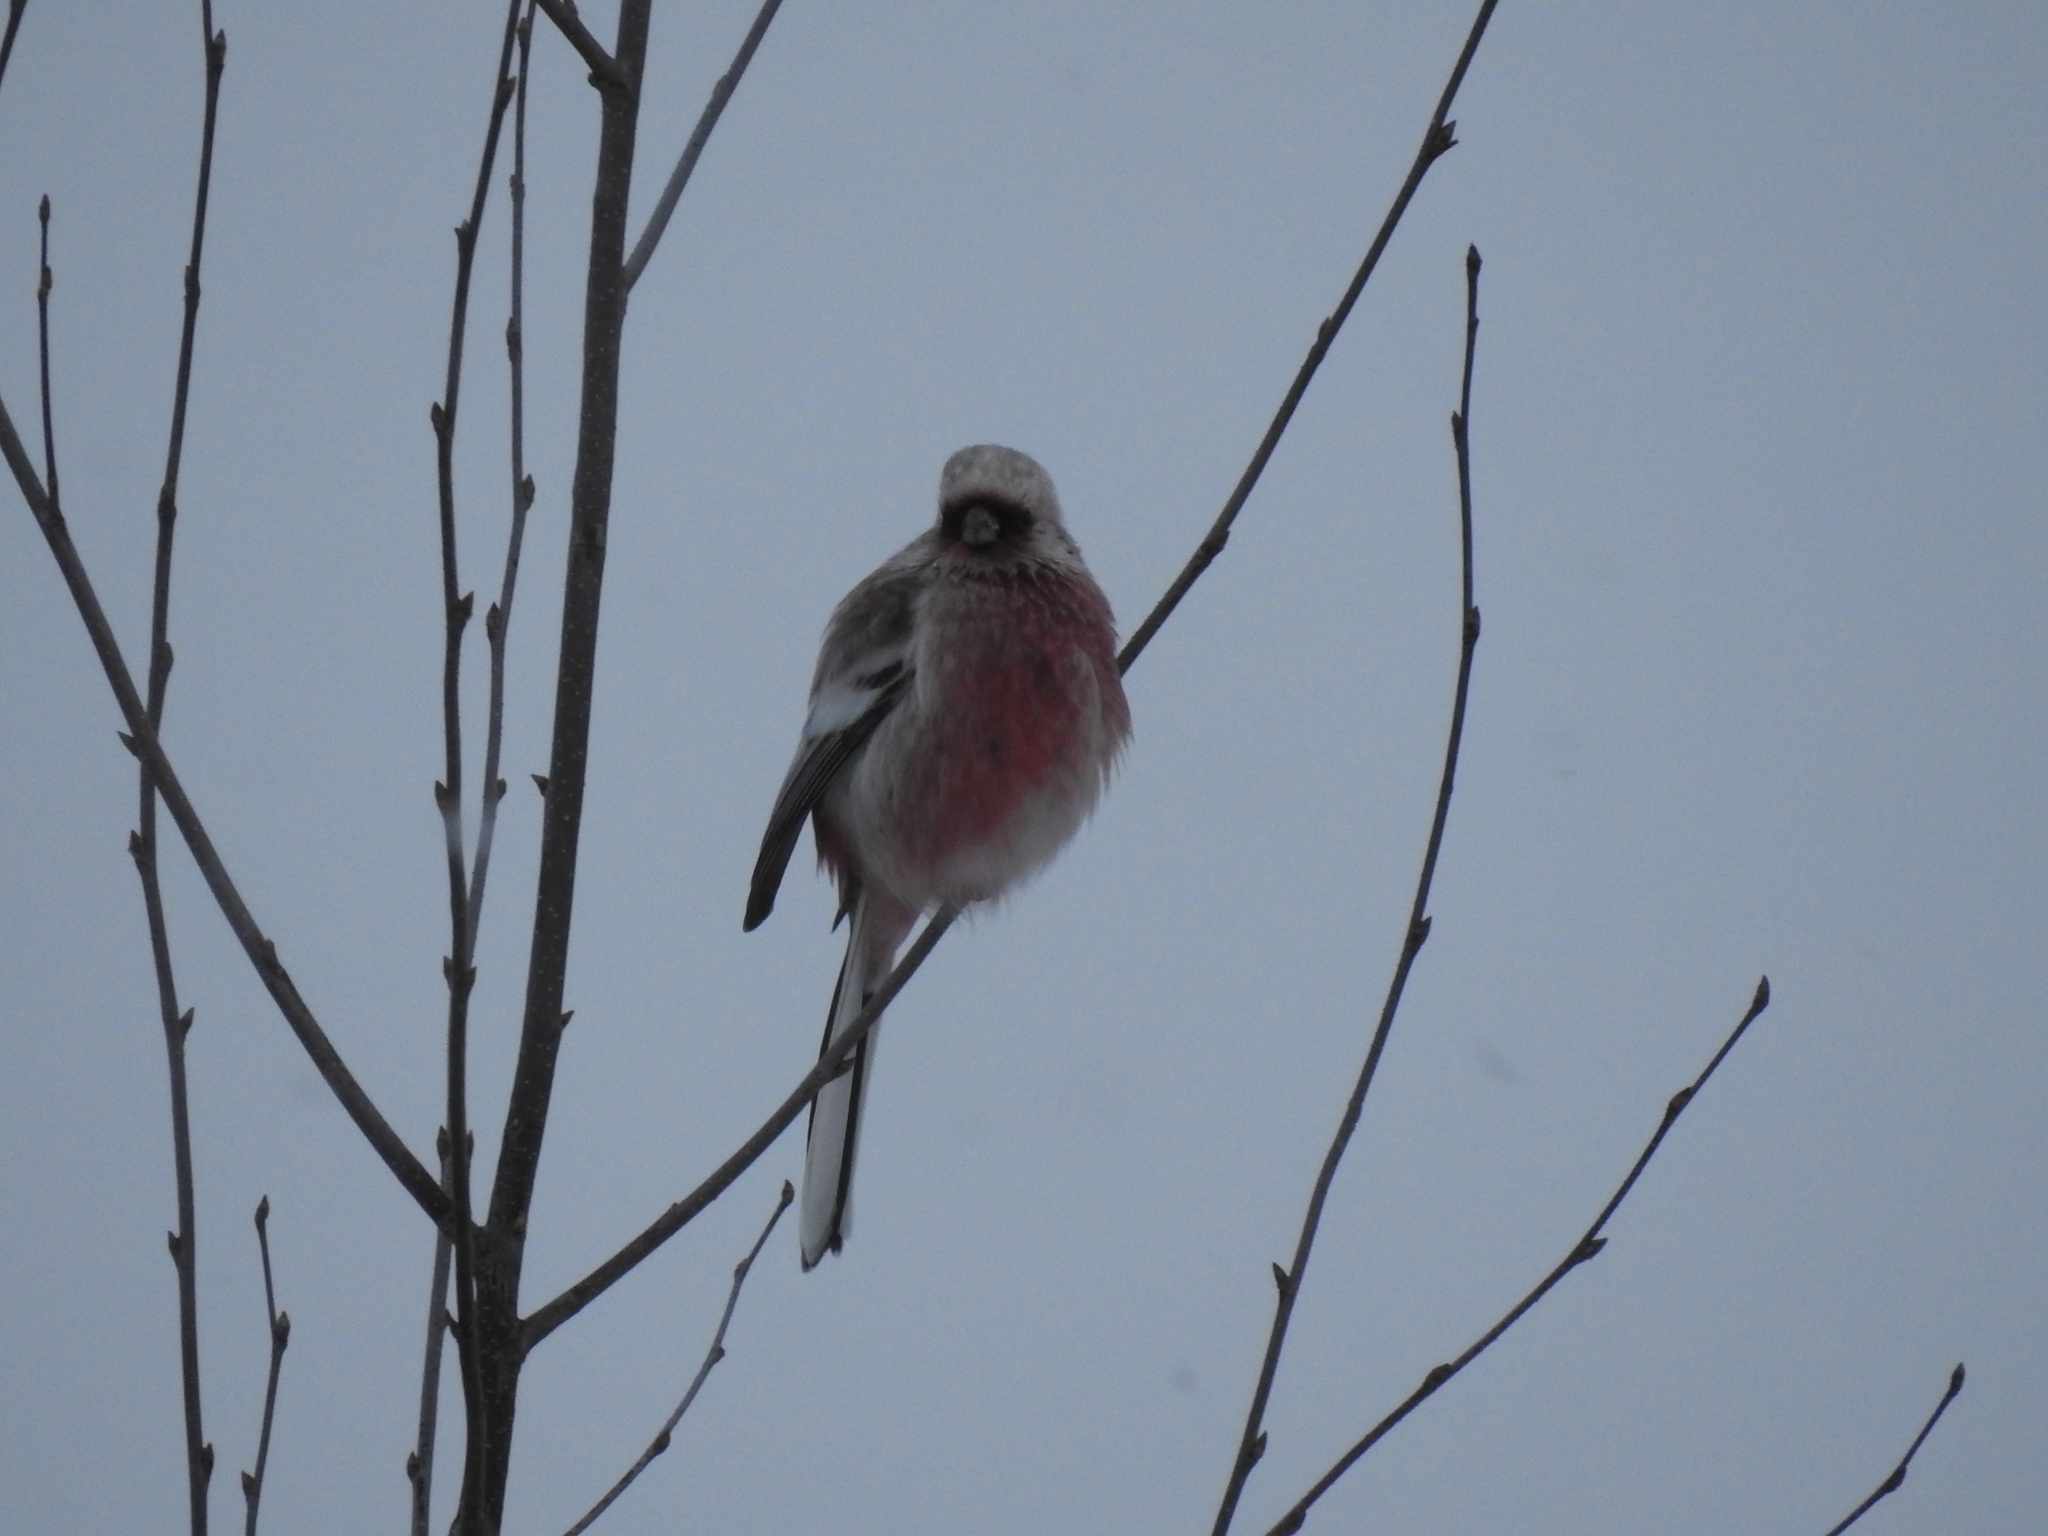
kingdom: Animalia
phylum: Chordata
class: Aves
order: Passeriformes
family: Fringillidae
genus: Carpodacus
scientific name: Carpodacus sibiricus
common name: Long-tailed rosefinch
